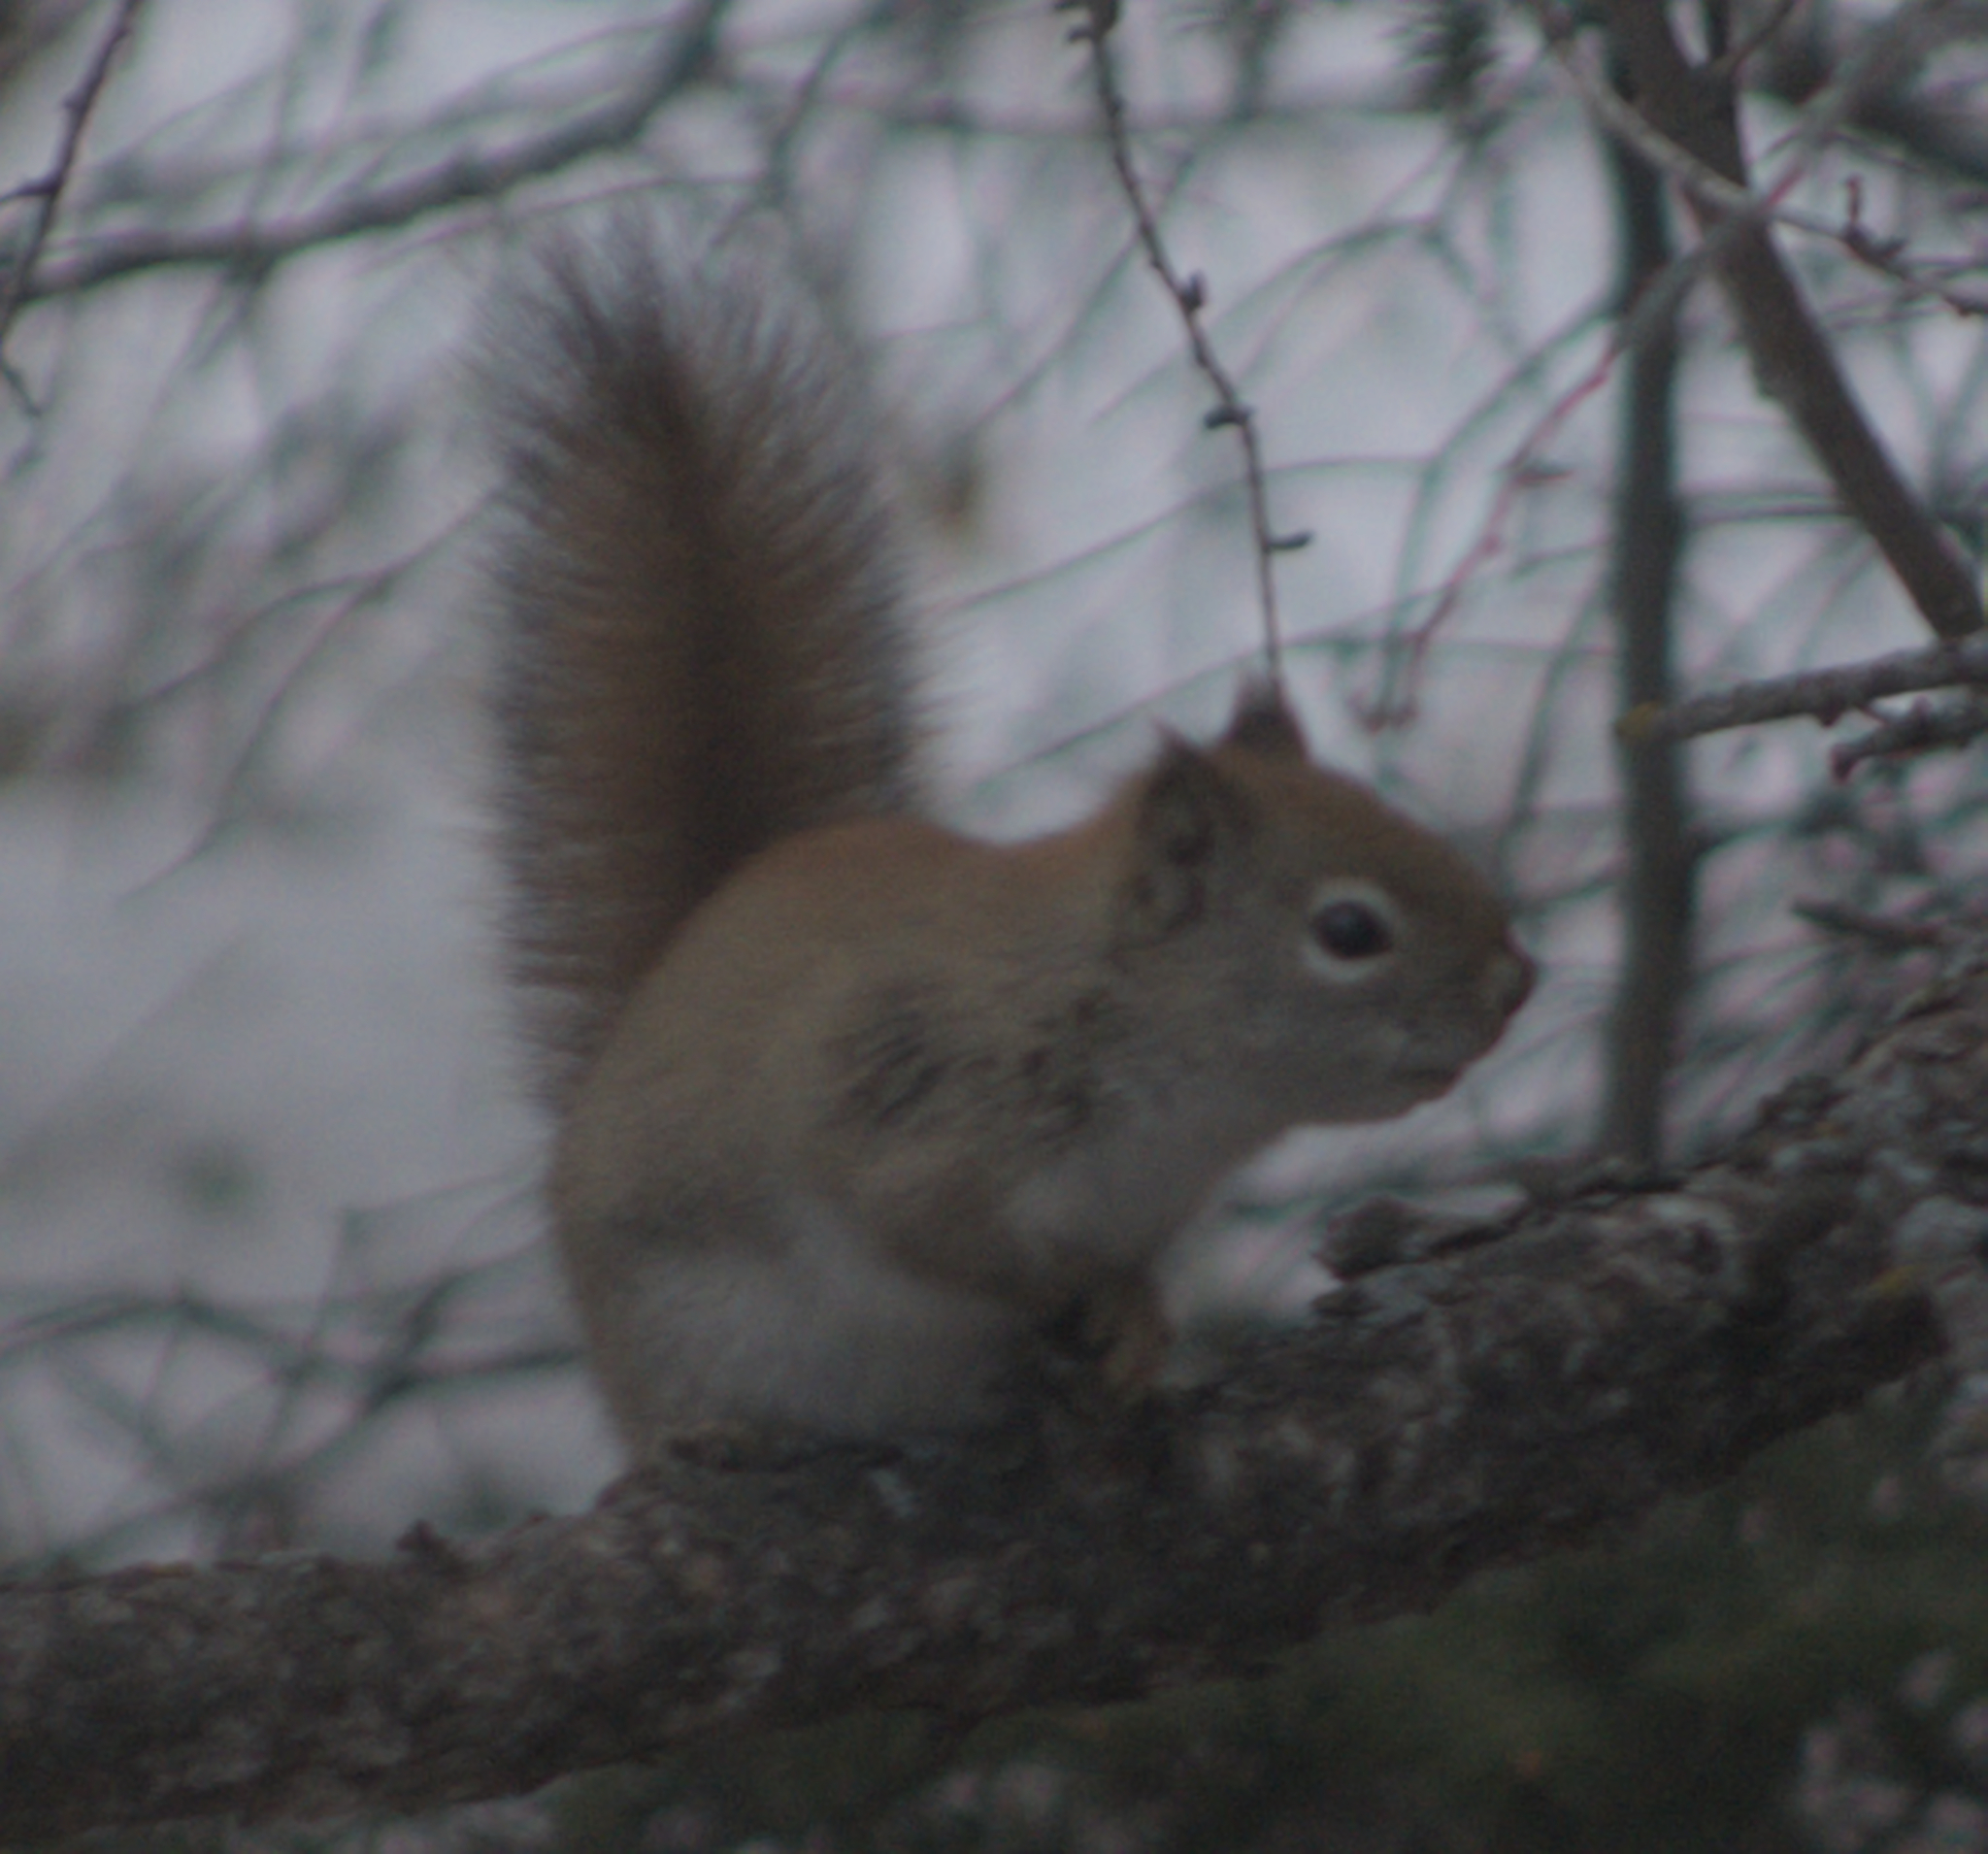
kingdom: Animalia
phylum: Chordata
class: Mammalia
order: Rodentia
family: Sciuridae
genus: Tamiasciurus
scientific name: Tamiasciurus hudsonicus
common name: Red squirrel
